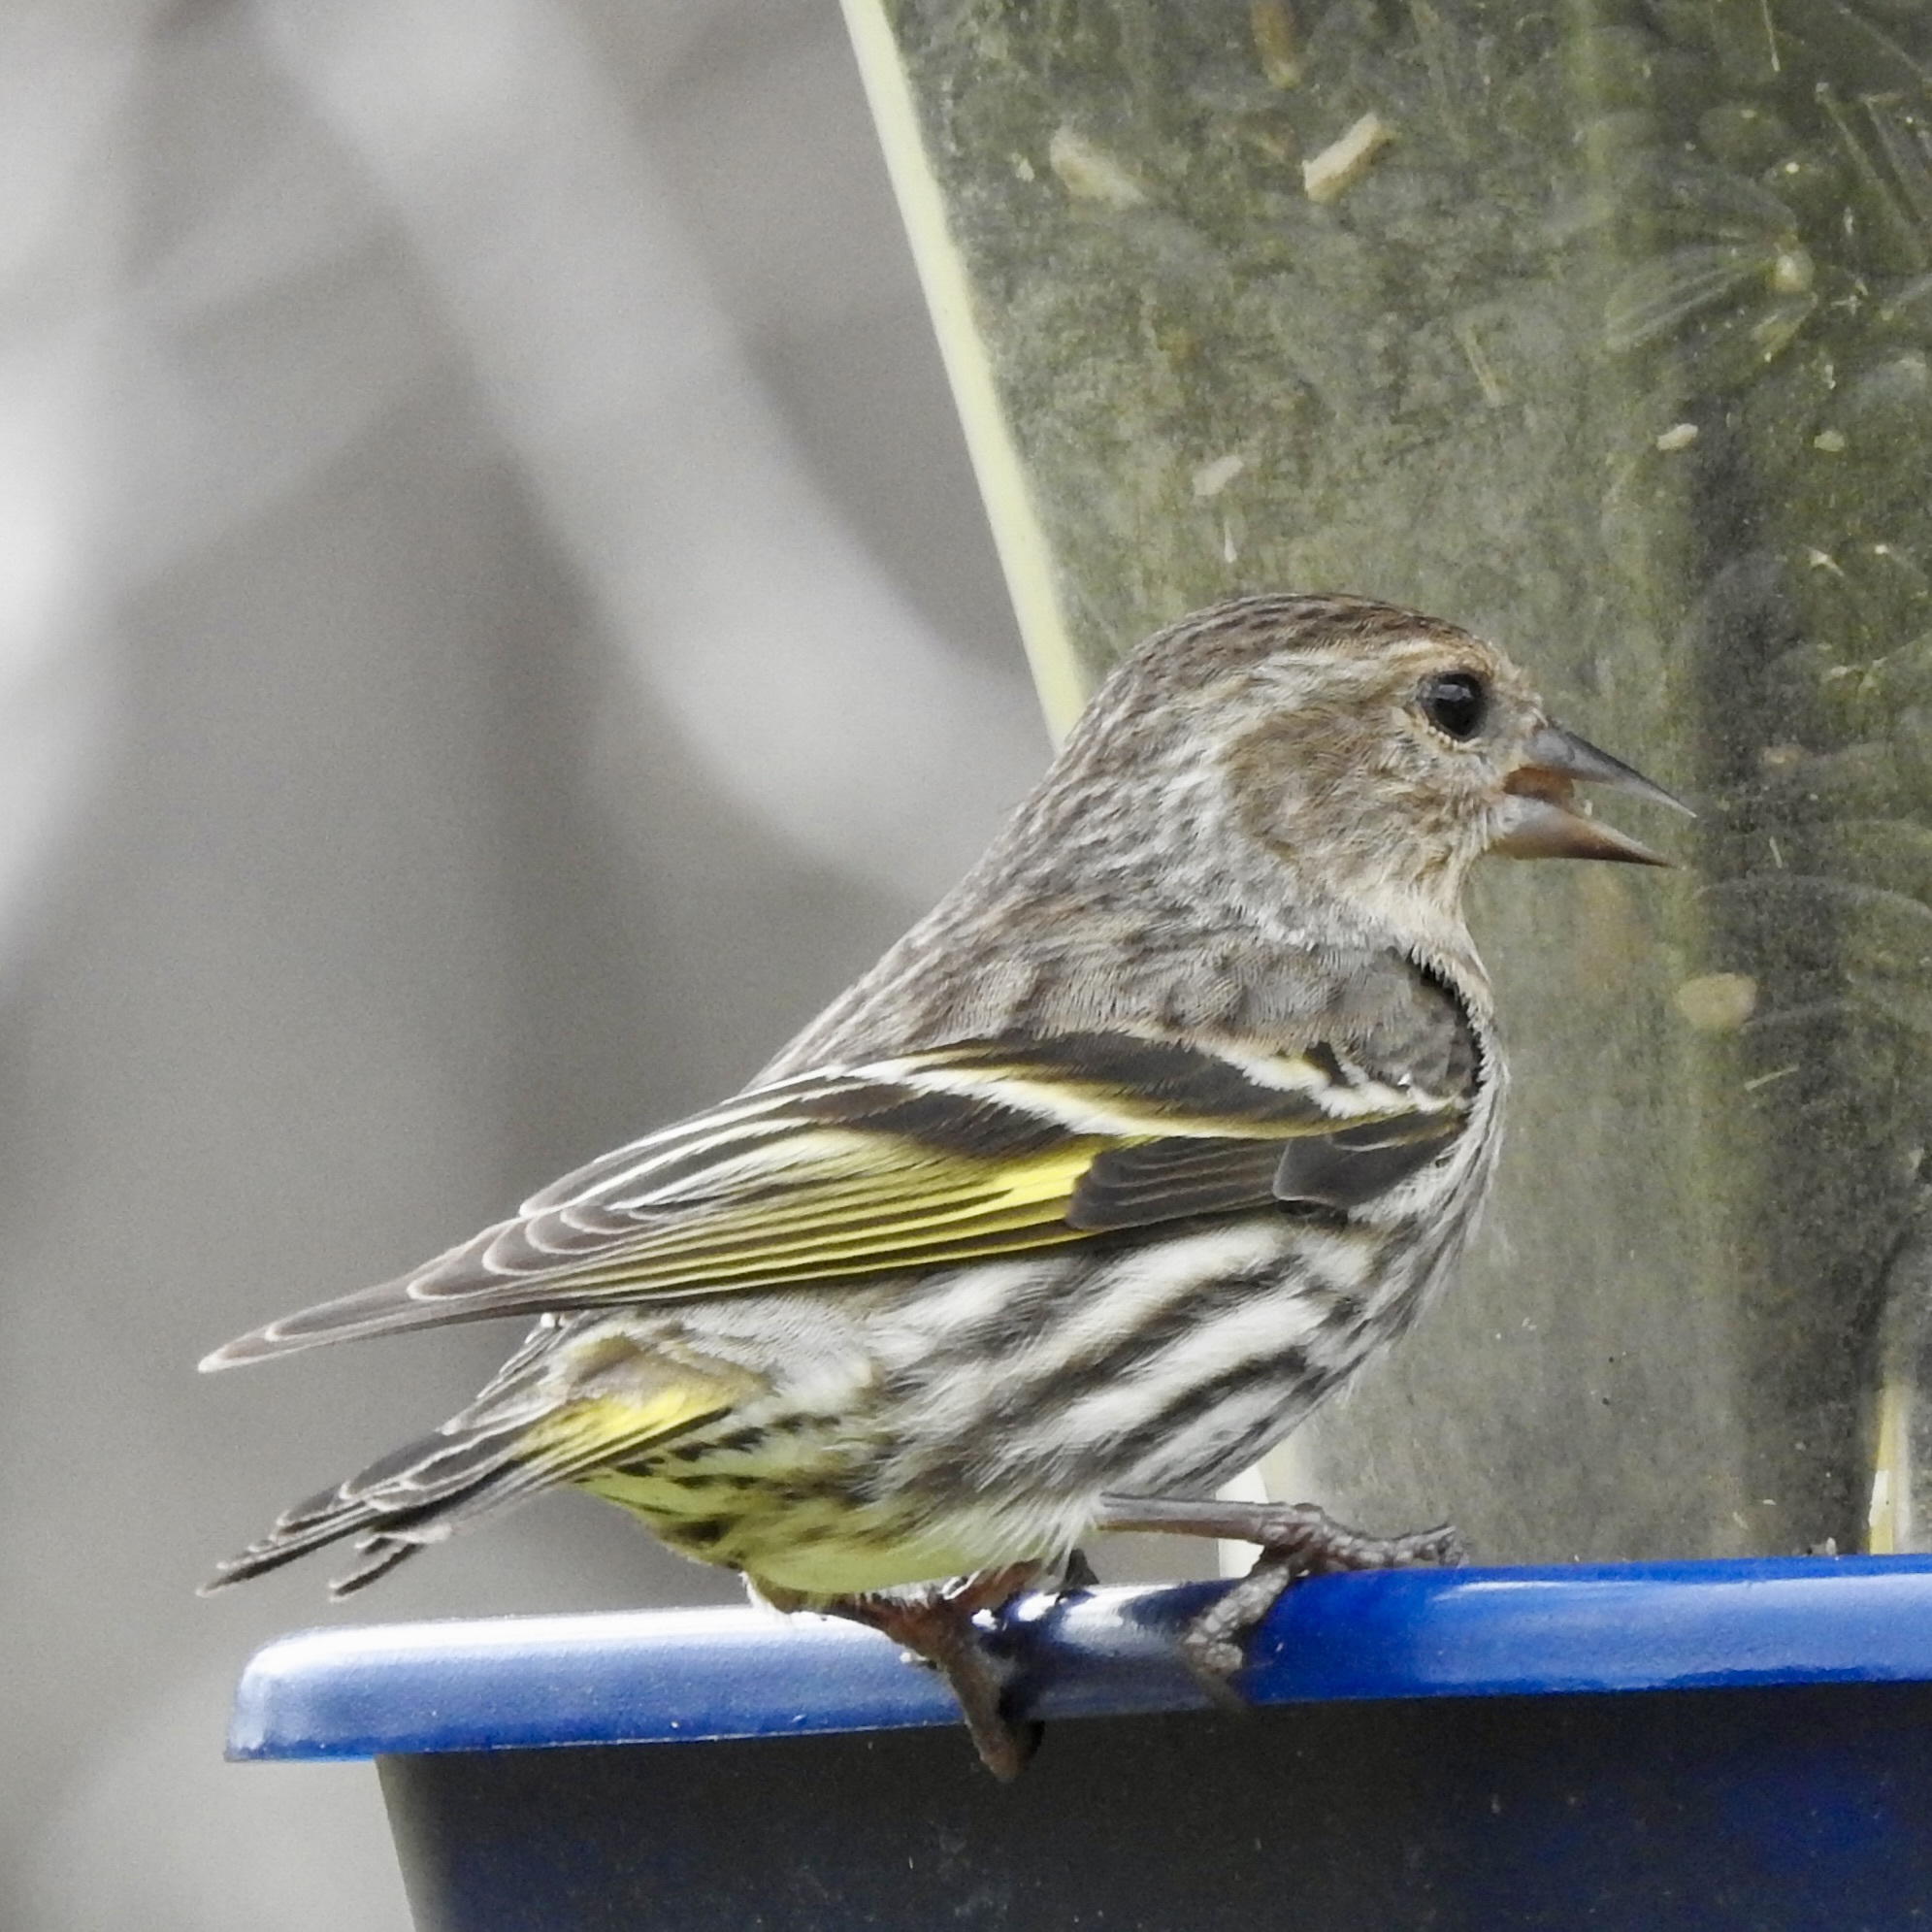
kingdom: Animalia
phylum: Chordata
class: Aves
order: Passeriformes
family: Fringillidae
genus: Spinus
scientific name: Spinus pinus
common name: Pine siskin
